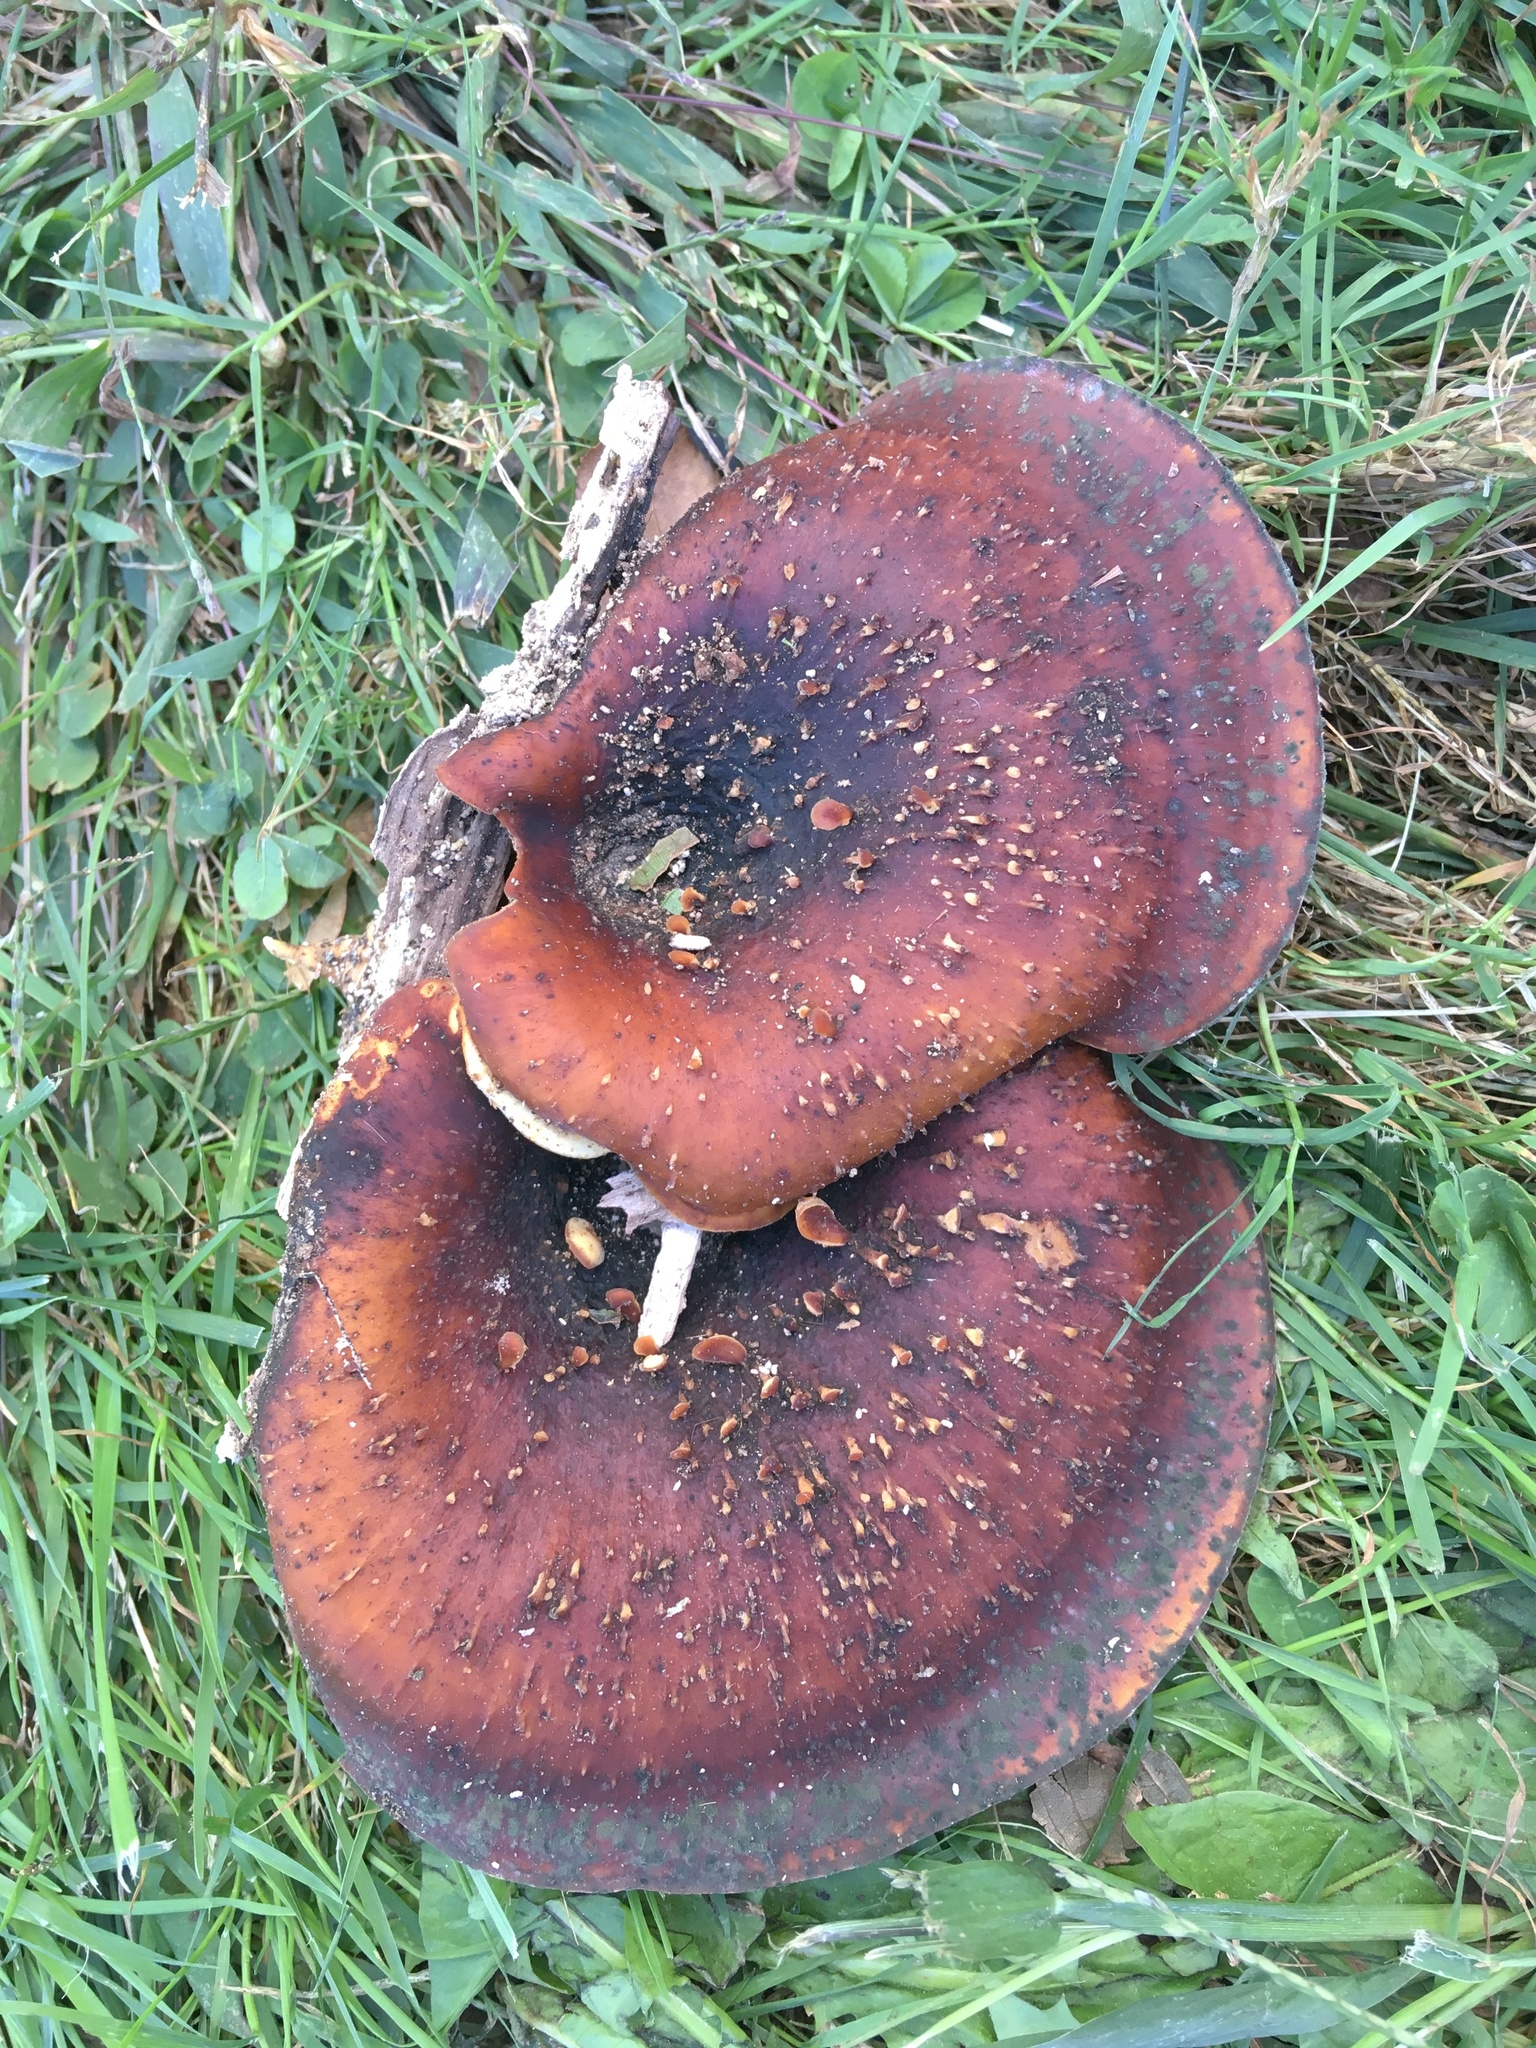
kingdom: Fungi
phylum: Basidiomycota
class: Agaricomycetes
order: Polyporales
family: Polyporaceae
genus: Picipes
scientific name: Picipes badius
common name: Bay polypore
